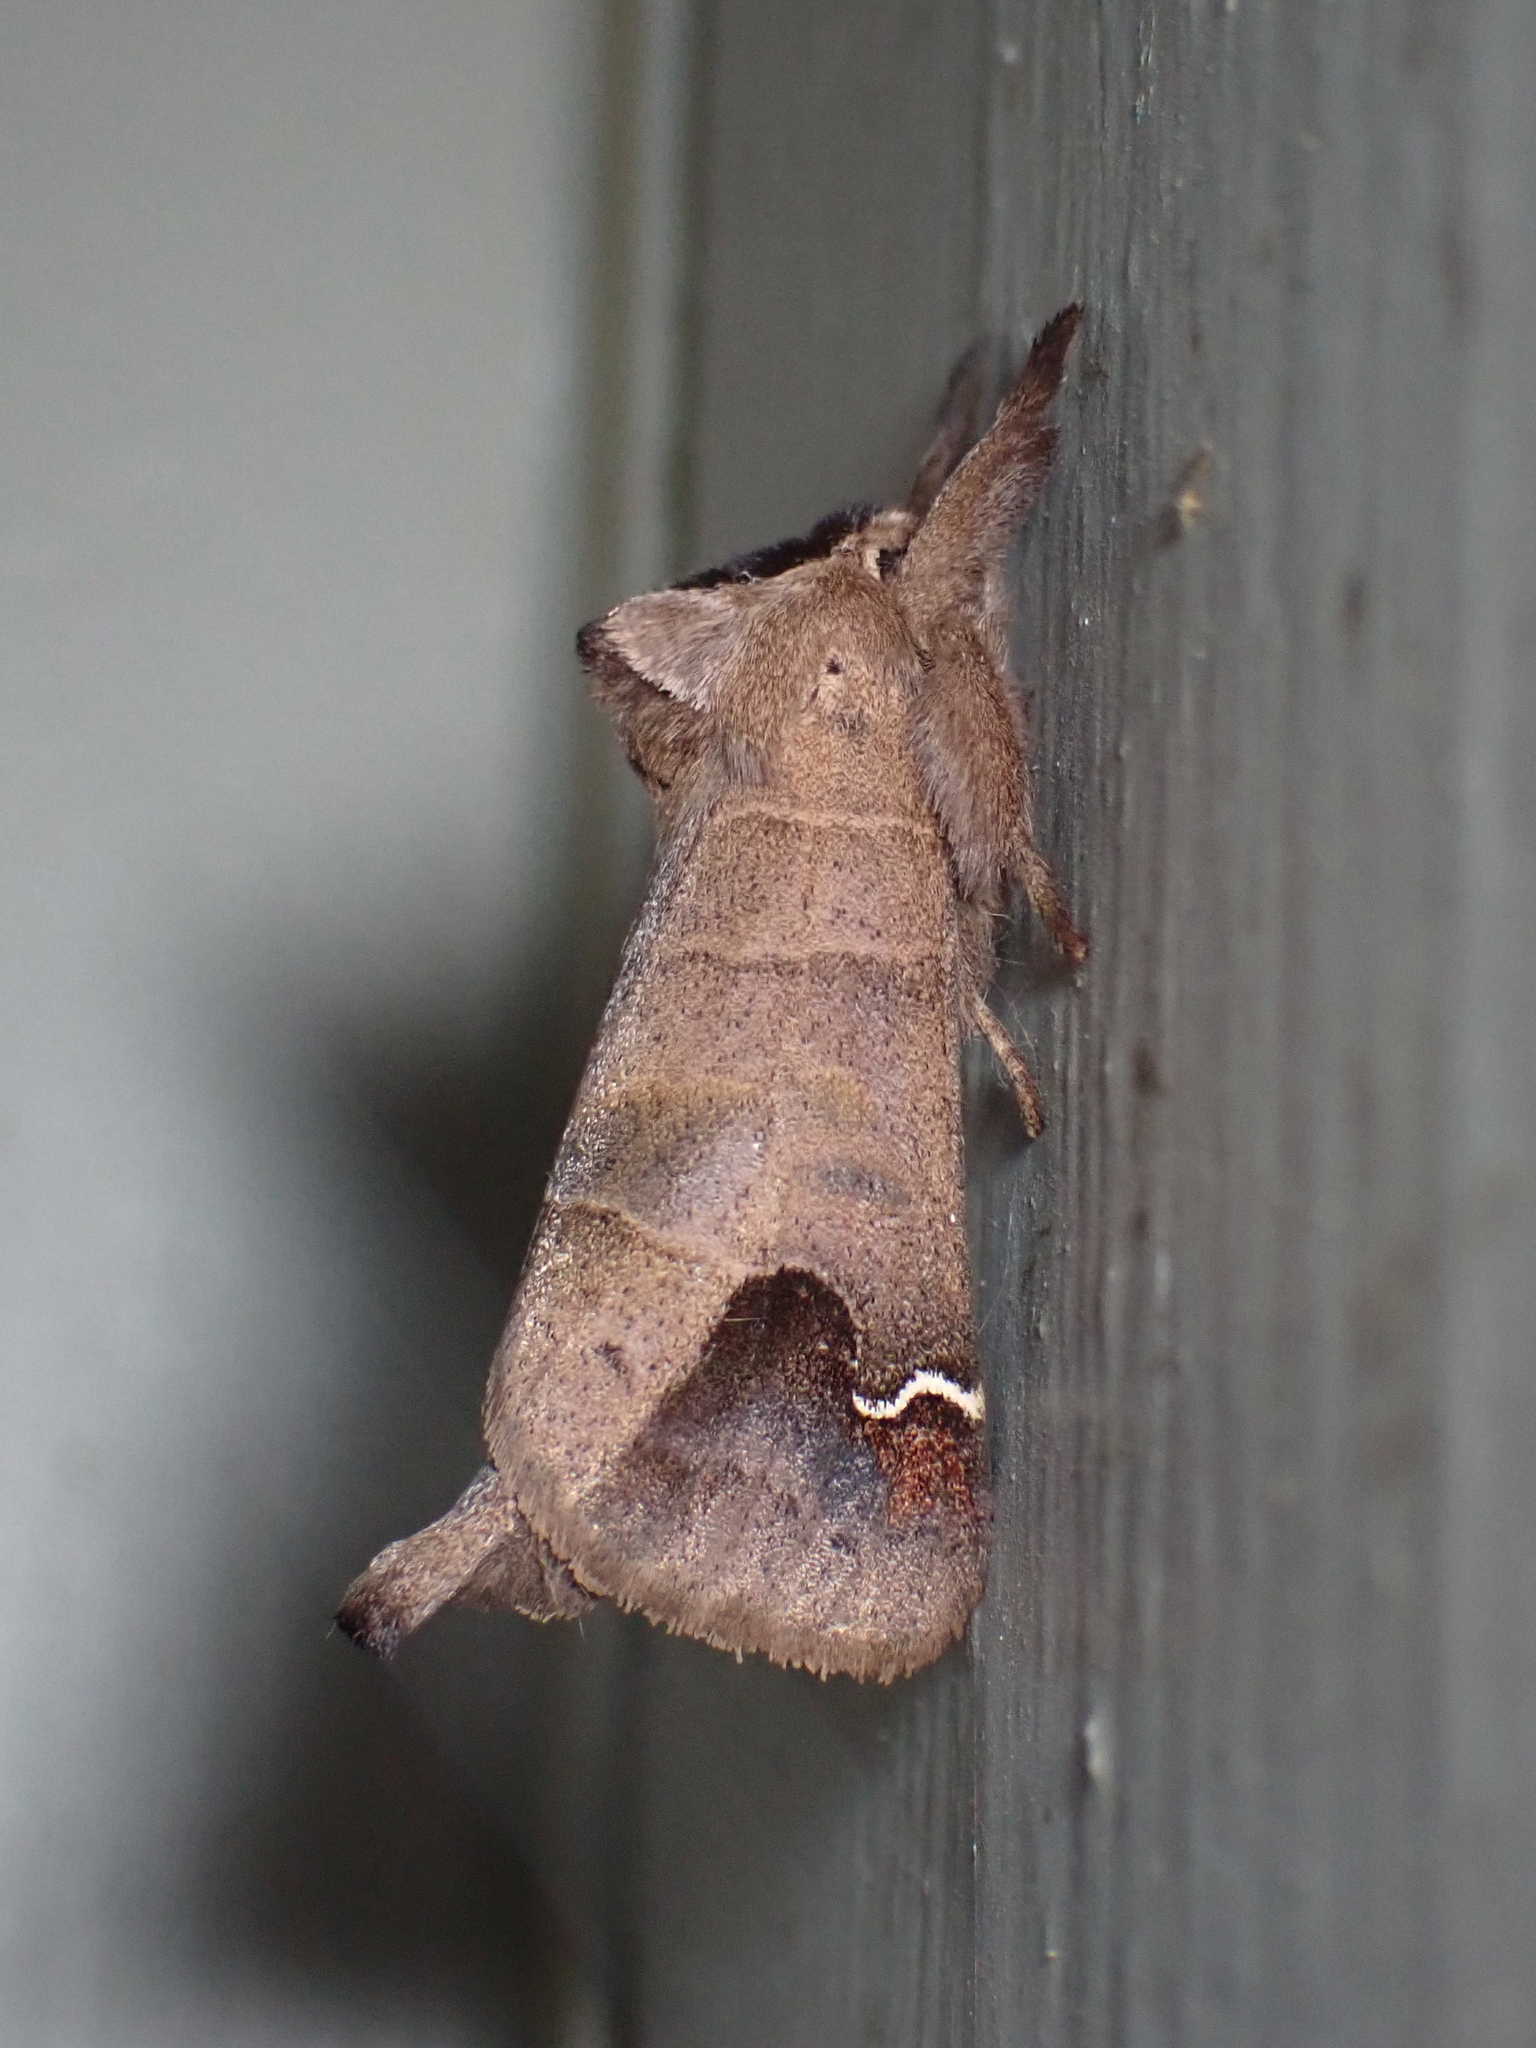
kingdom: Animalia
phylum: Arthropoda
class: Insecta
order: Lepidoptera
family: Notodontidae
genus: Clostera
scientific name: Clostera albosigma
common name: Sigmoid prominent
